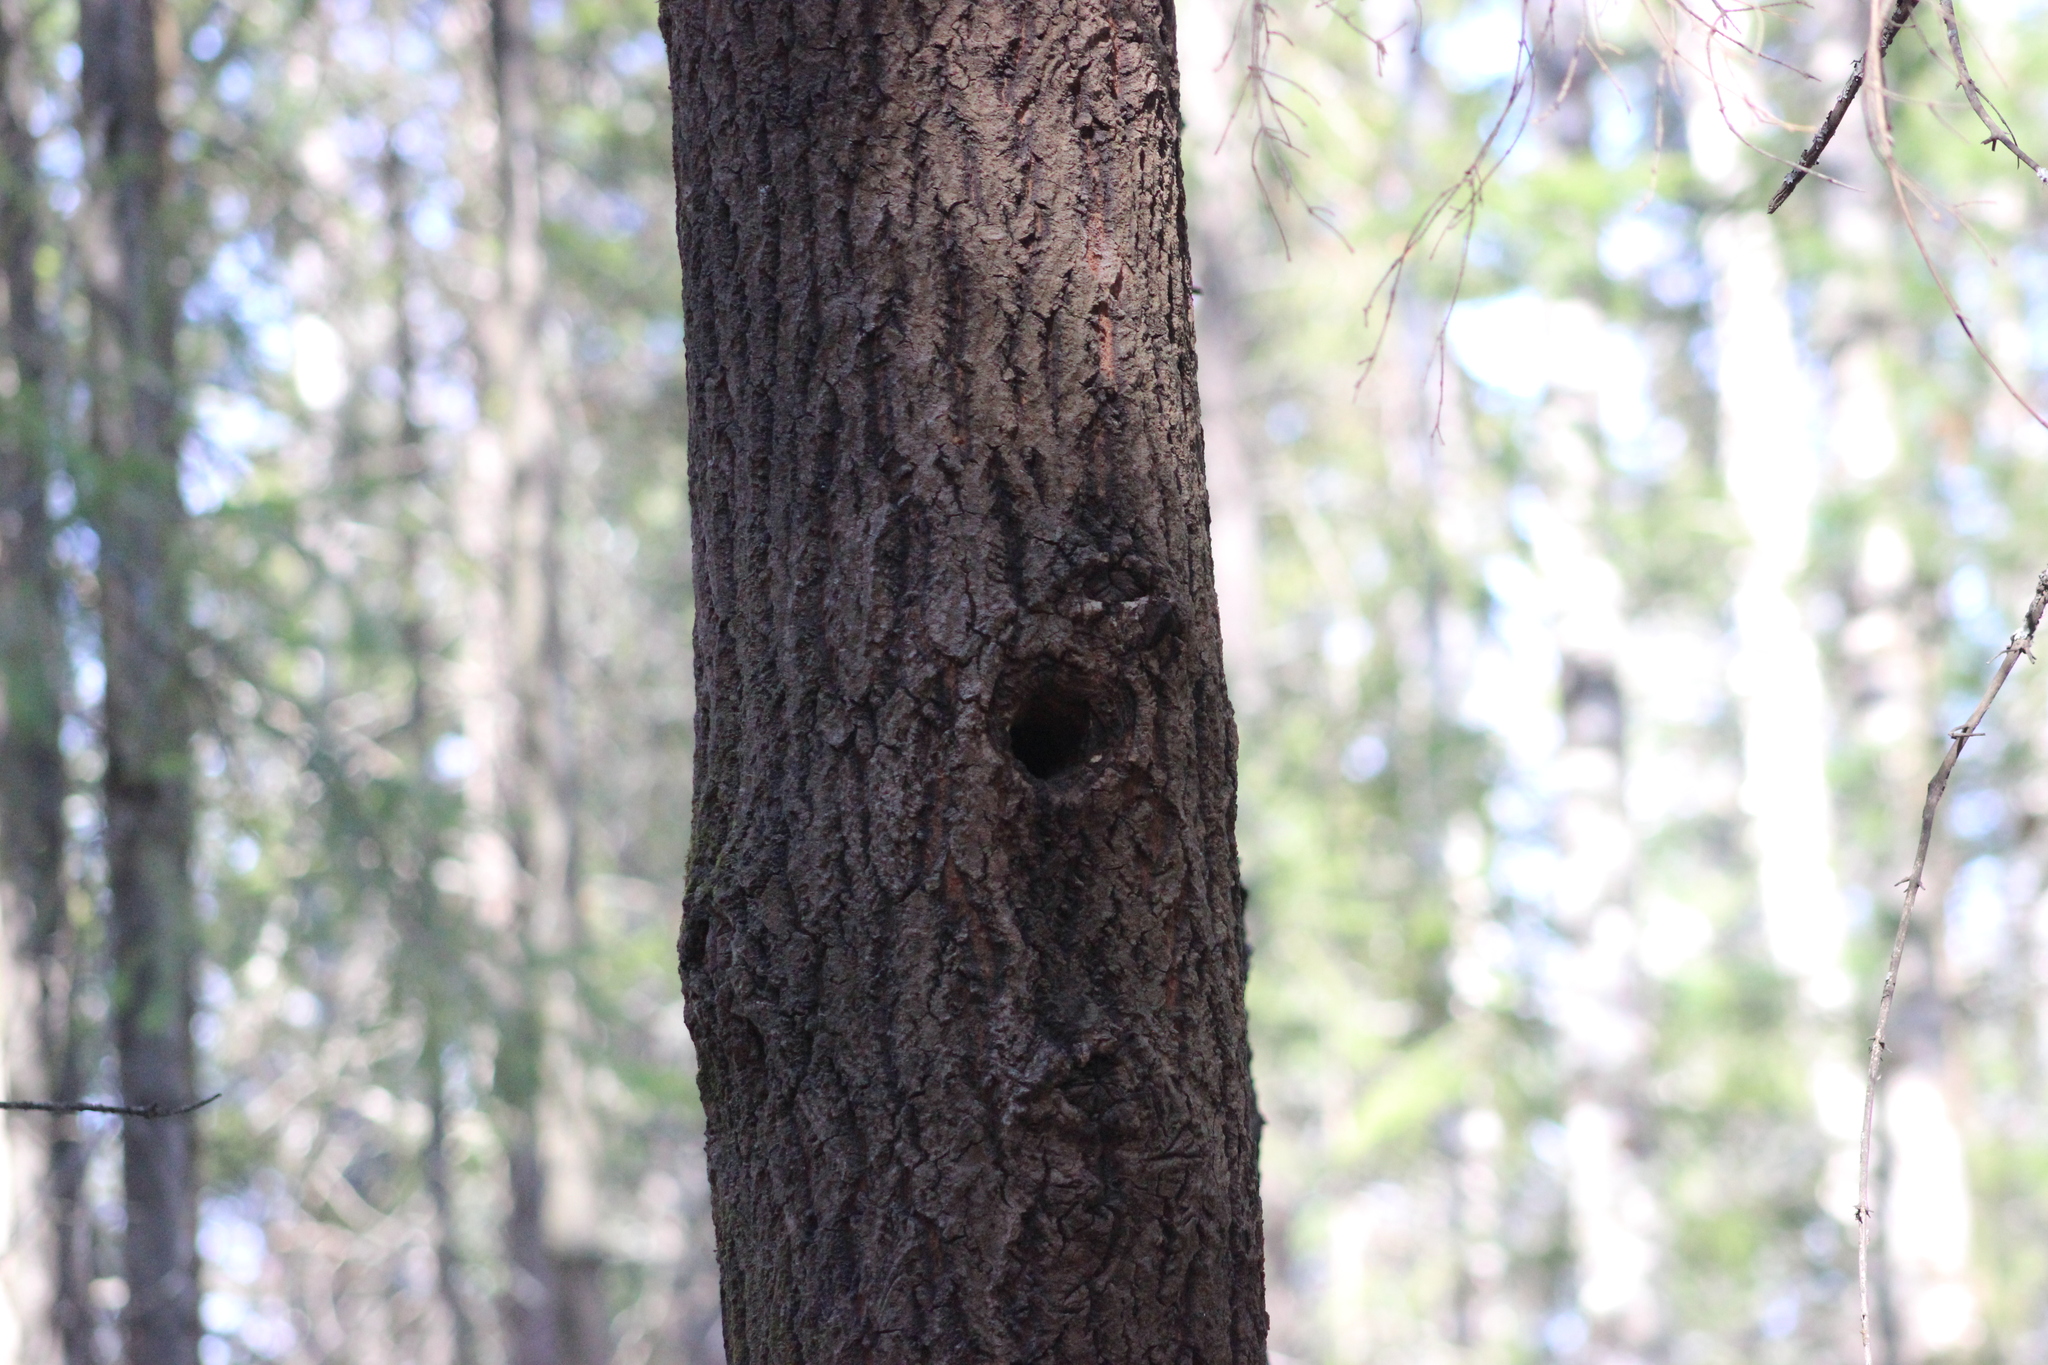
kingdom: Animalia
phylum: Chordata
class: Aves
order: Passeriformes
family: Paridae
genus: Periparus
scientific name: Periparus ater
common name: Coal tit
